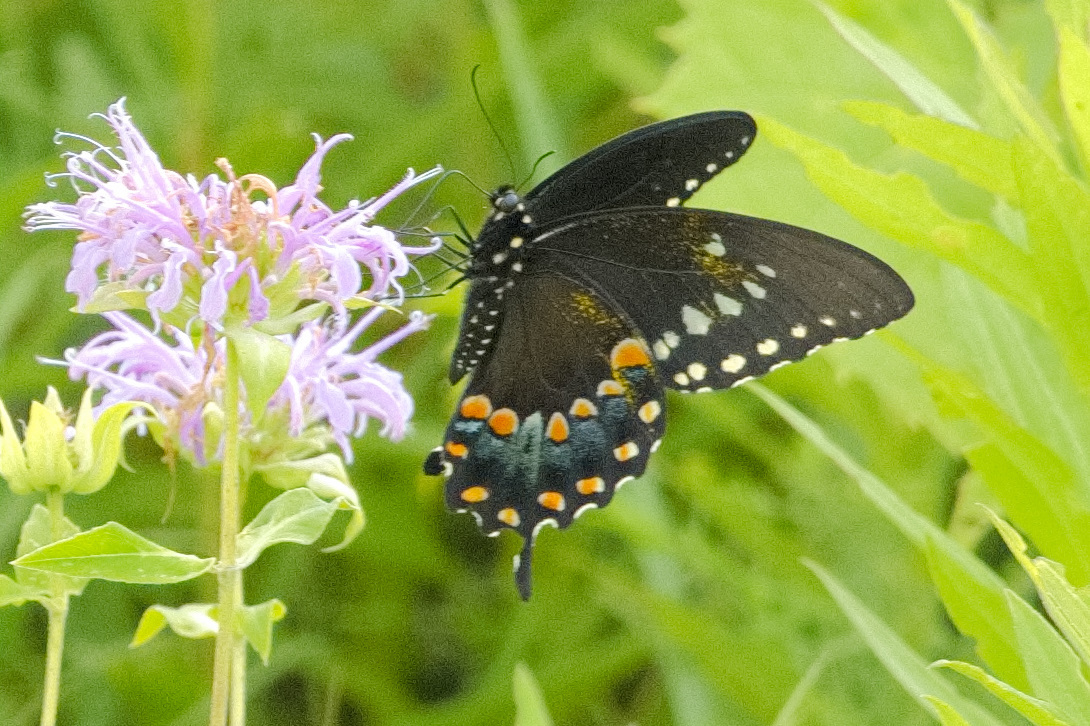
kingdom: Animalia
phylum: Arthropoda
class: Insecta
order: Lepidoptera
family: Papilionidae
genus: Papilio
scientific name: Papilio troilus
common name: Spicebush swallowtail
